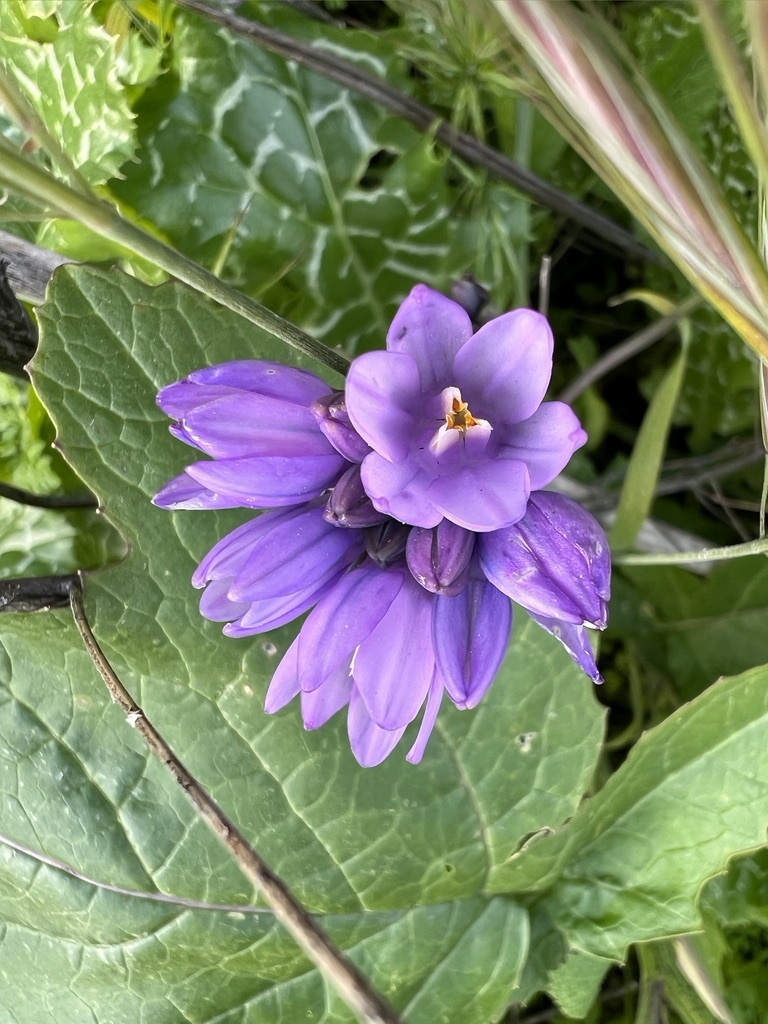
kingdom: Plantae
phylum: Tracheophyta
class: Liliopsida
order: Asparagales
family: Asparagaceae
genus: Dipterostemon
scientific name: Dipterostemon capitatus
